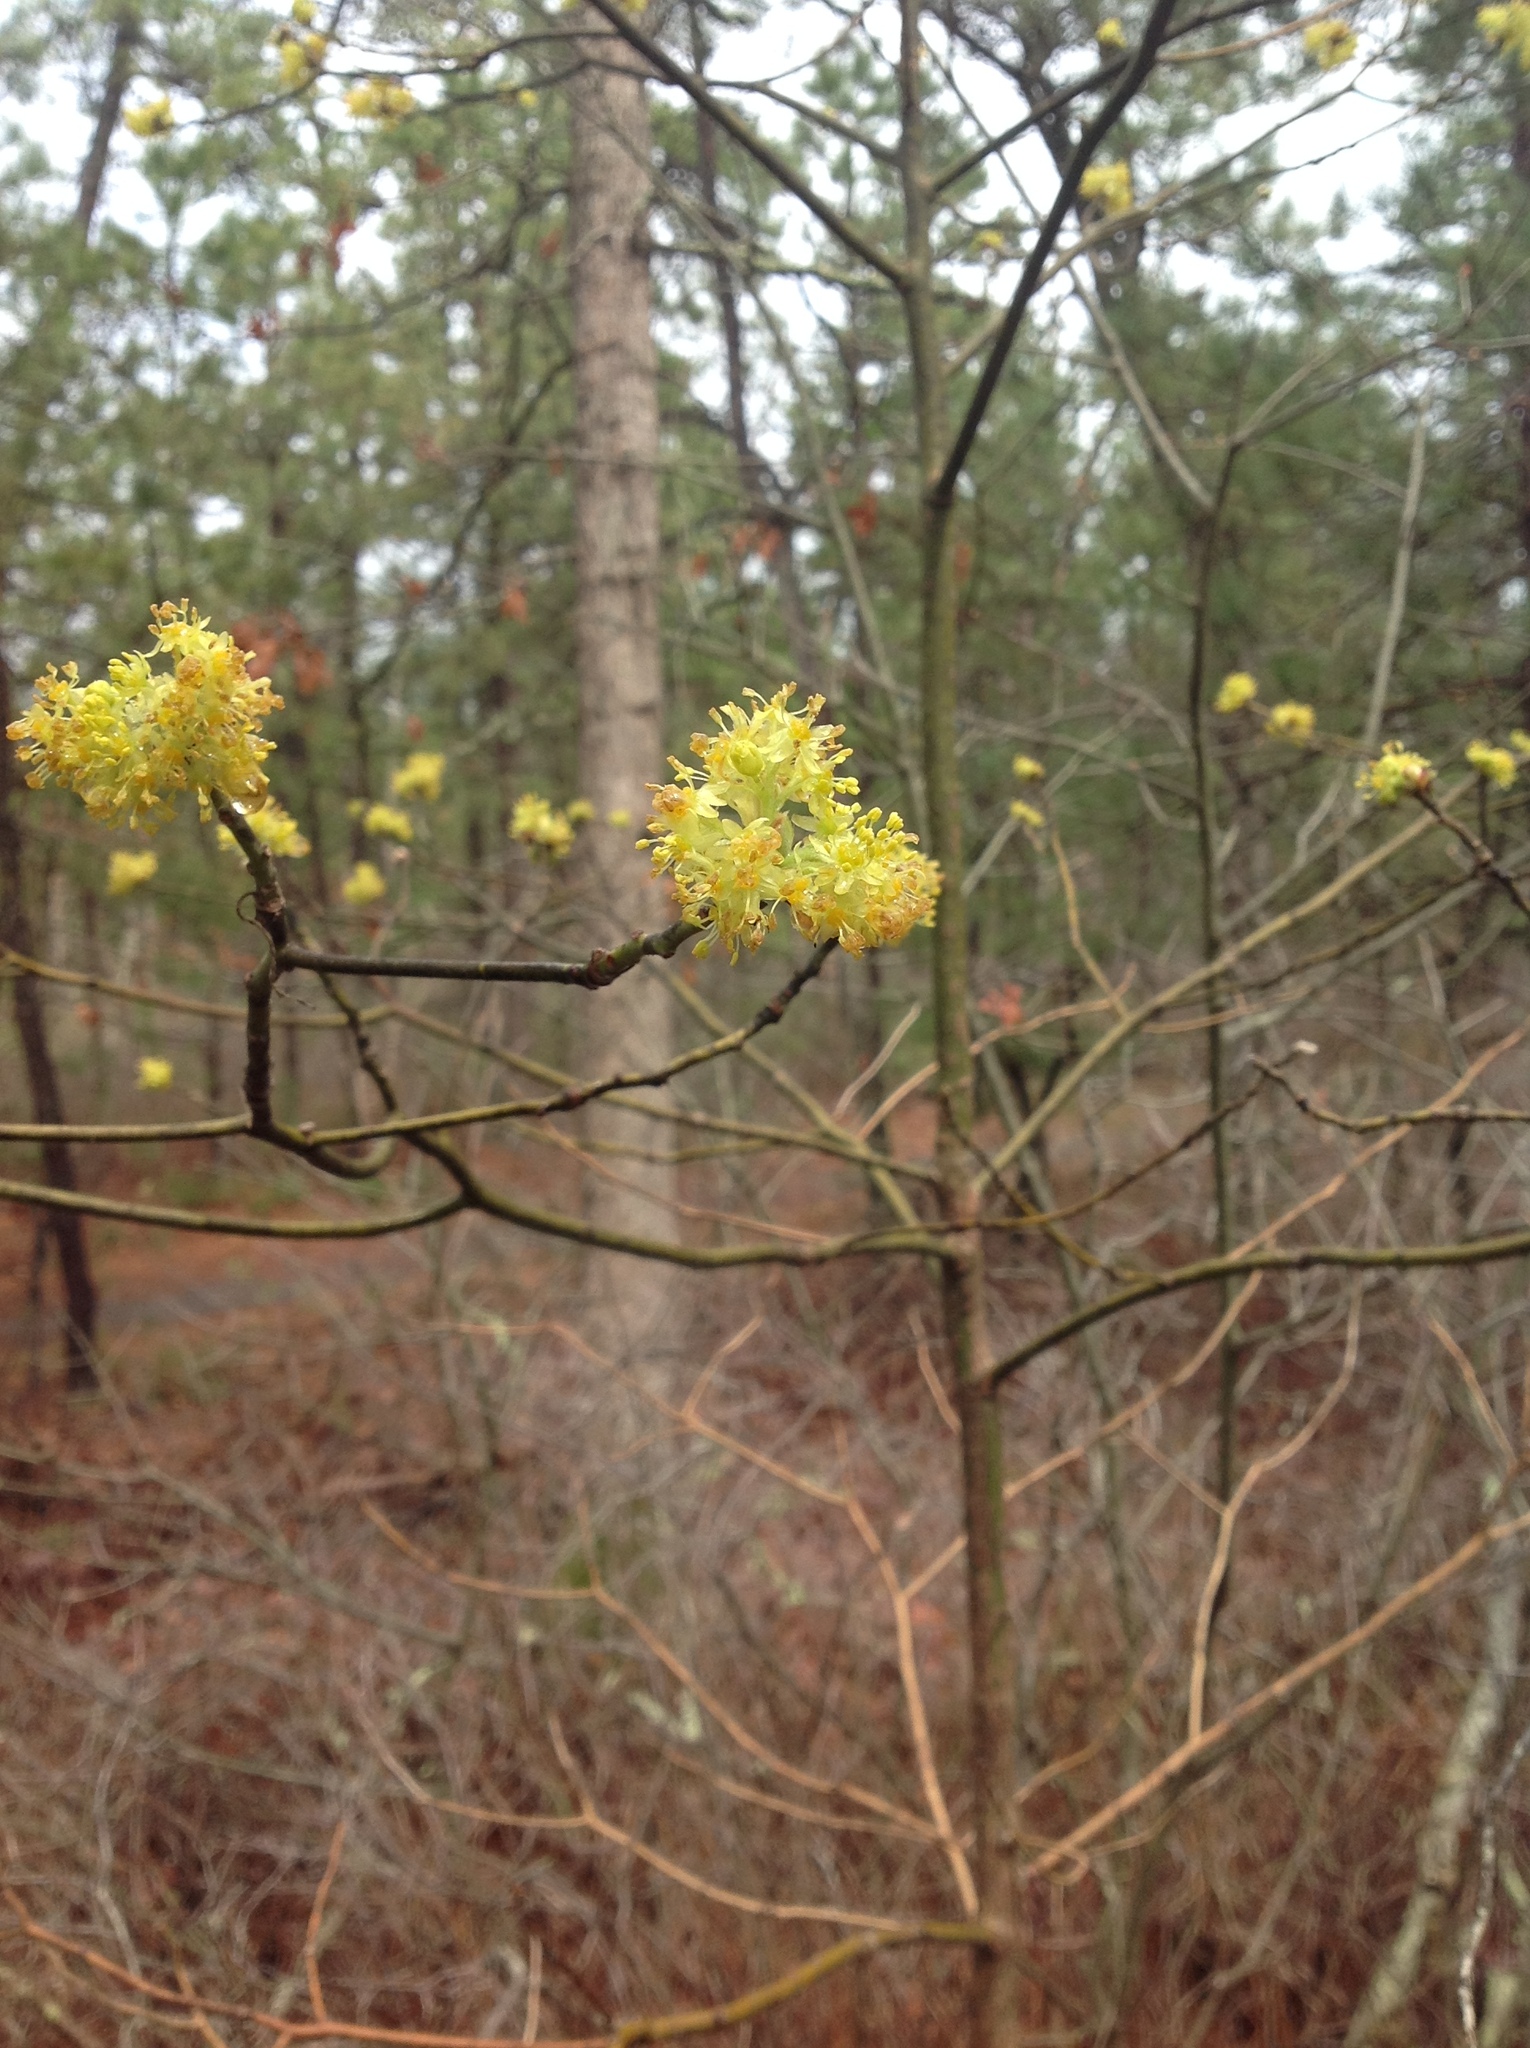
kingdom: Plantae
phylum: Tracheophyta
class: Magnoliopsida
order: Laurales
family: Lauraceae
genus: Sassafras
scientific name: Sassafras albidum
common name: Sassafras
